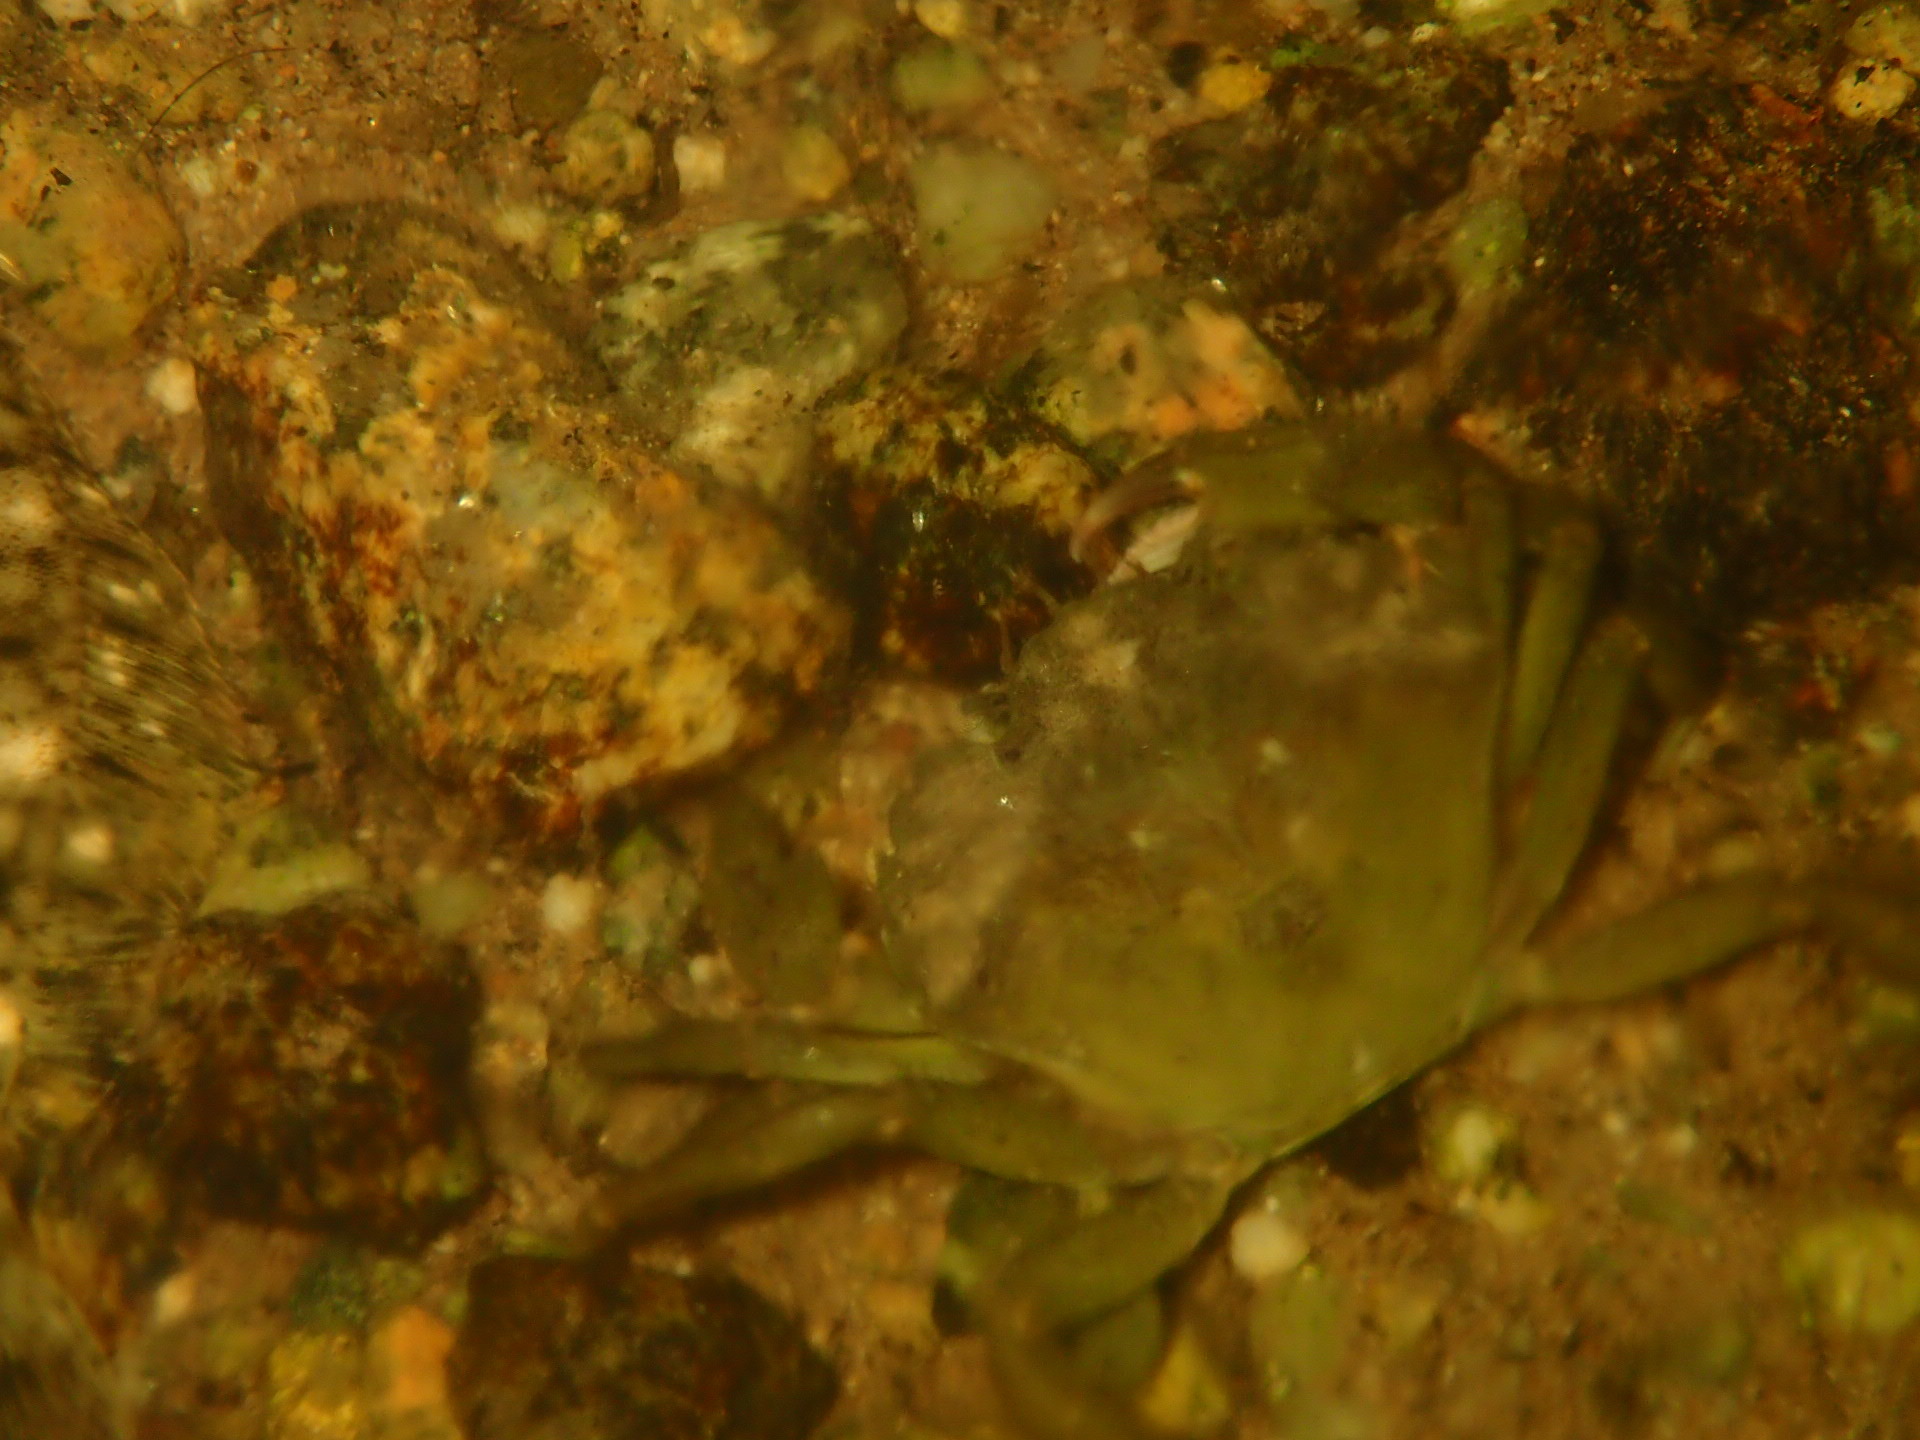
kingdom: Animalia
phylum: Arthropoda
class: Malacostraca
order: Decapoda
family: Carcinidae
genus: Carcinus
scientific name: Carcinus maenas
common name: European green crab
